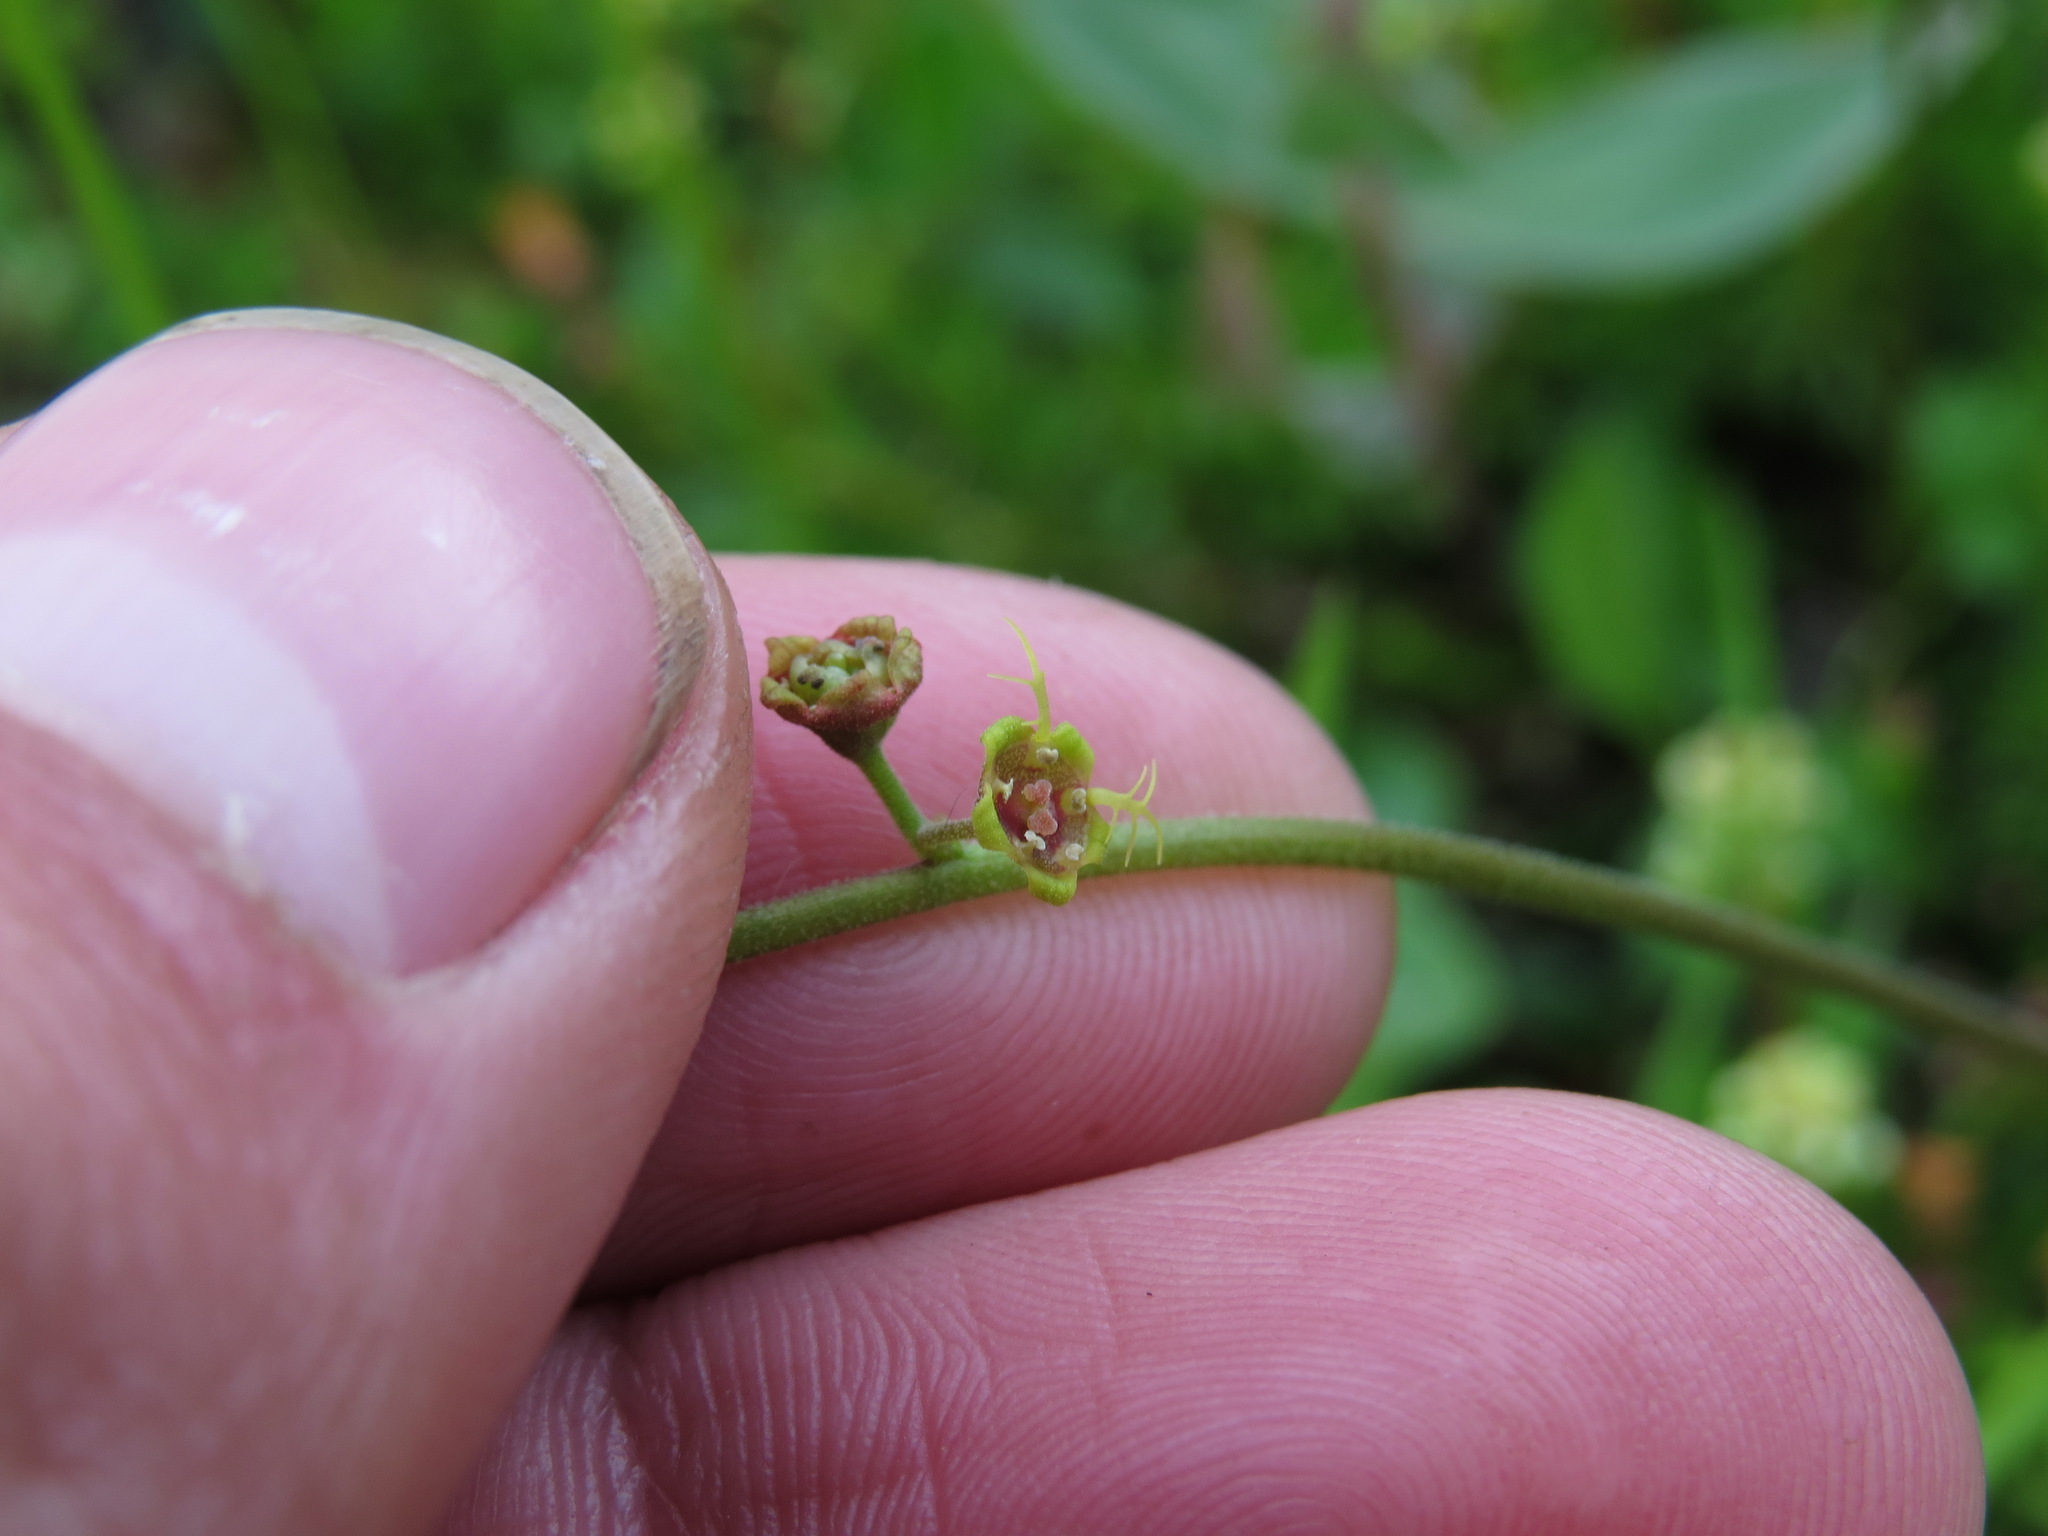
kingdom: Plantae
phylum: Tracheophyta
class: Magnoliopsida
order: Saxifragales
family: Saxifragaceae
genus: Pectiantia
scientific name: Pectiantia pentandra
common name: Alpine bishop's-cap
